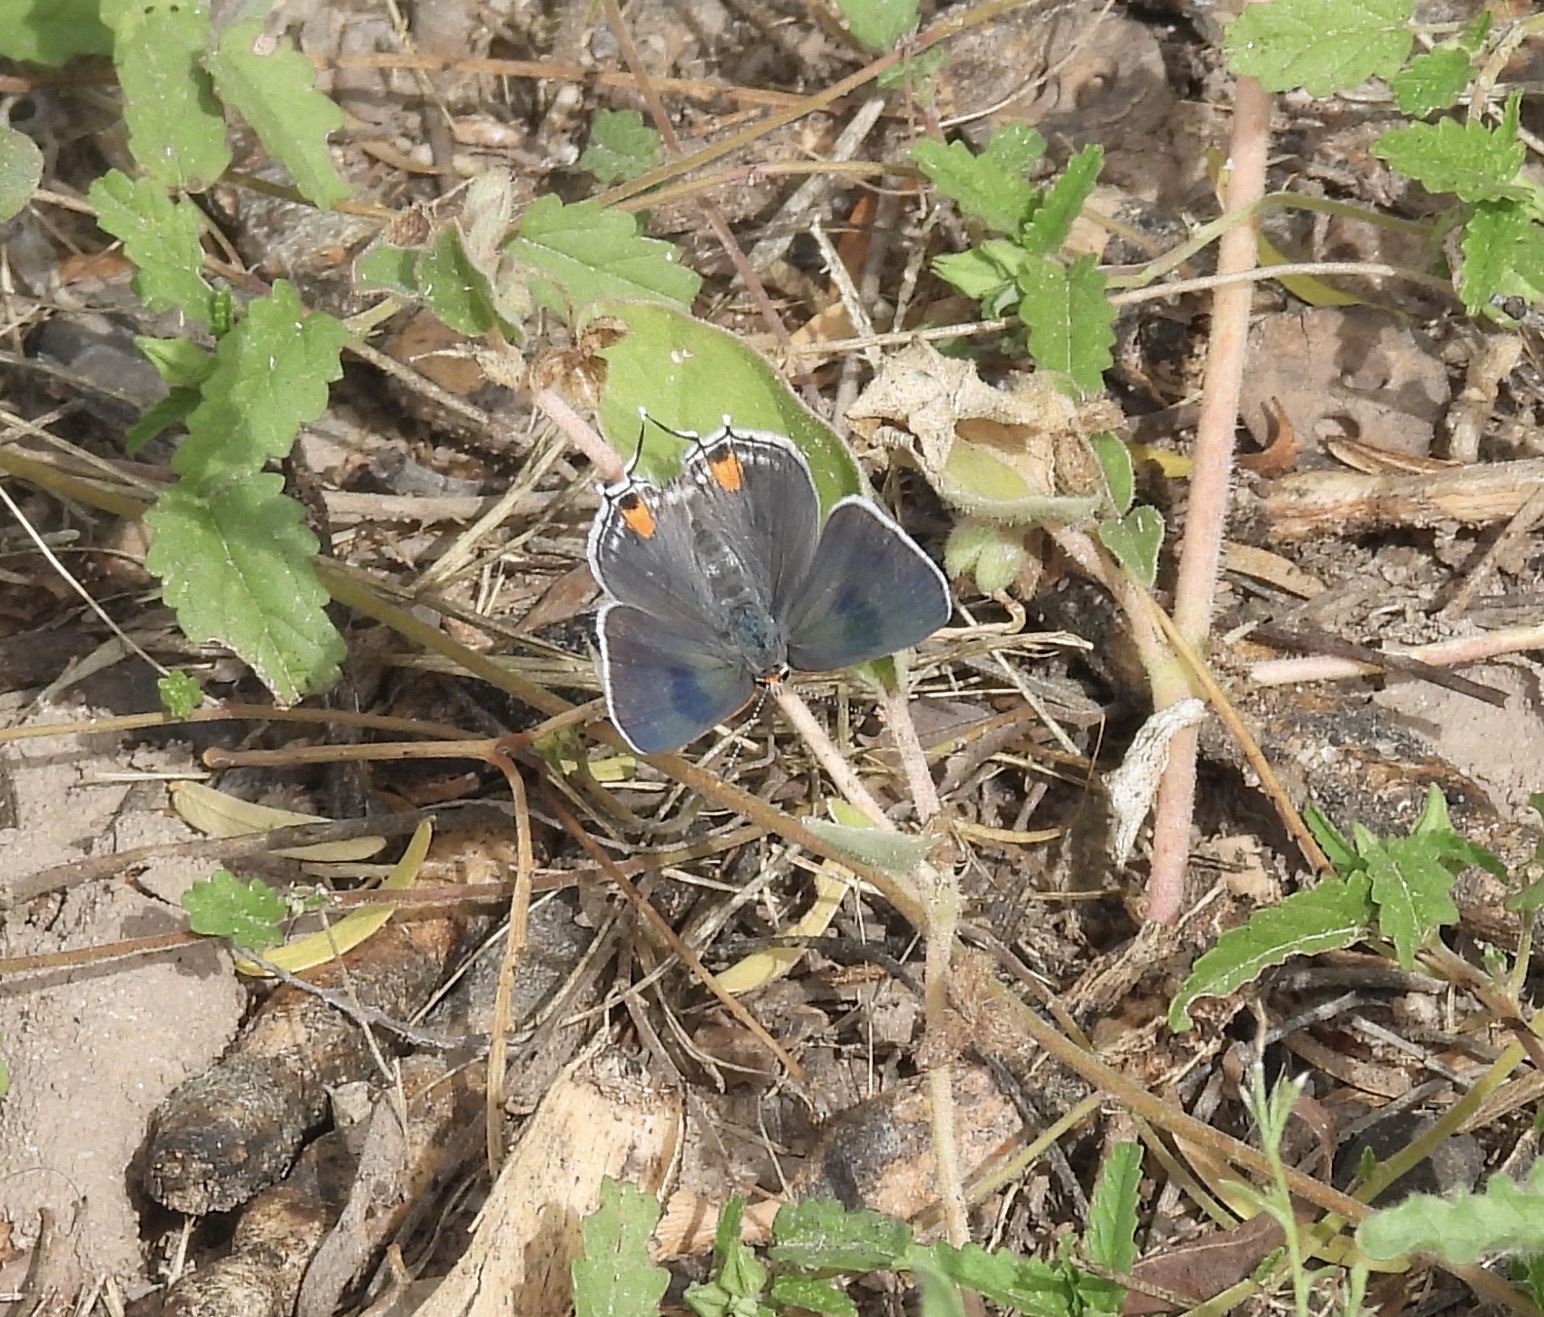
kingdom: Animalia
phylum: Arthropoda
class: Insecta
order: Lepidoptera
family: Lycaenidae
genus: Strymon
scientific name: Strymon melinus
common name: Gray hairstreak
